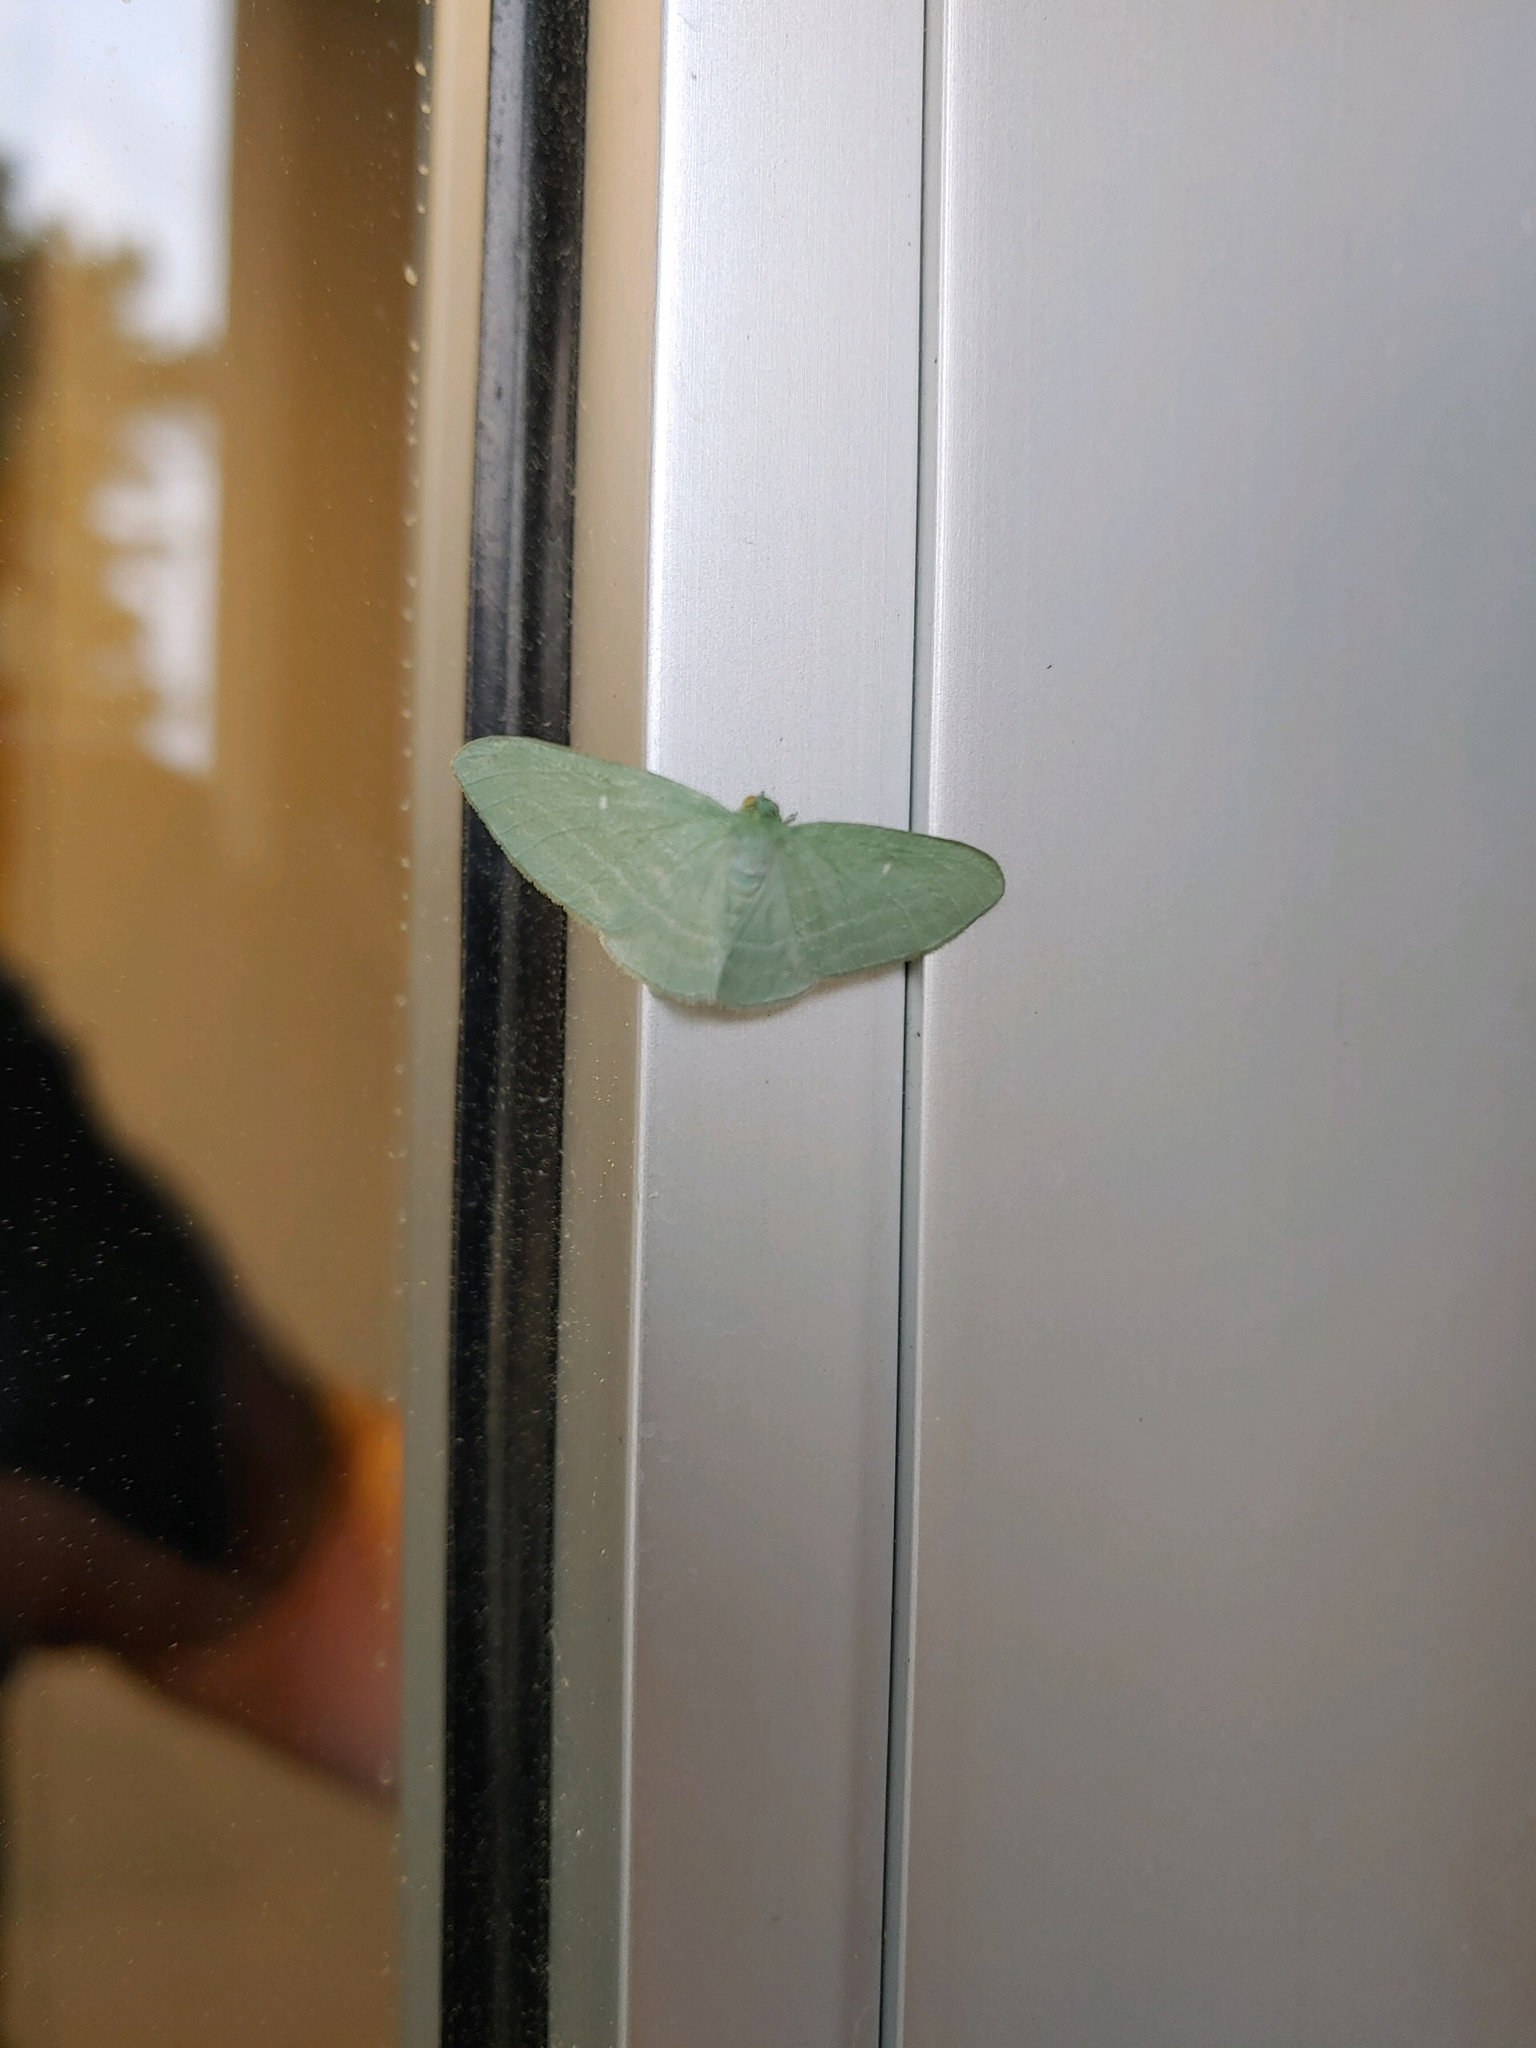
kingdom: Animalia
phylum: Arthropoda
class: Insecta
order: Lepidoptera
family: Geometridae
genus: Dyspteris
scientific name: Dyspteris abortivaria
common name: Bad-wing
